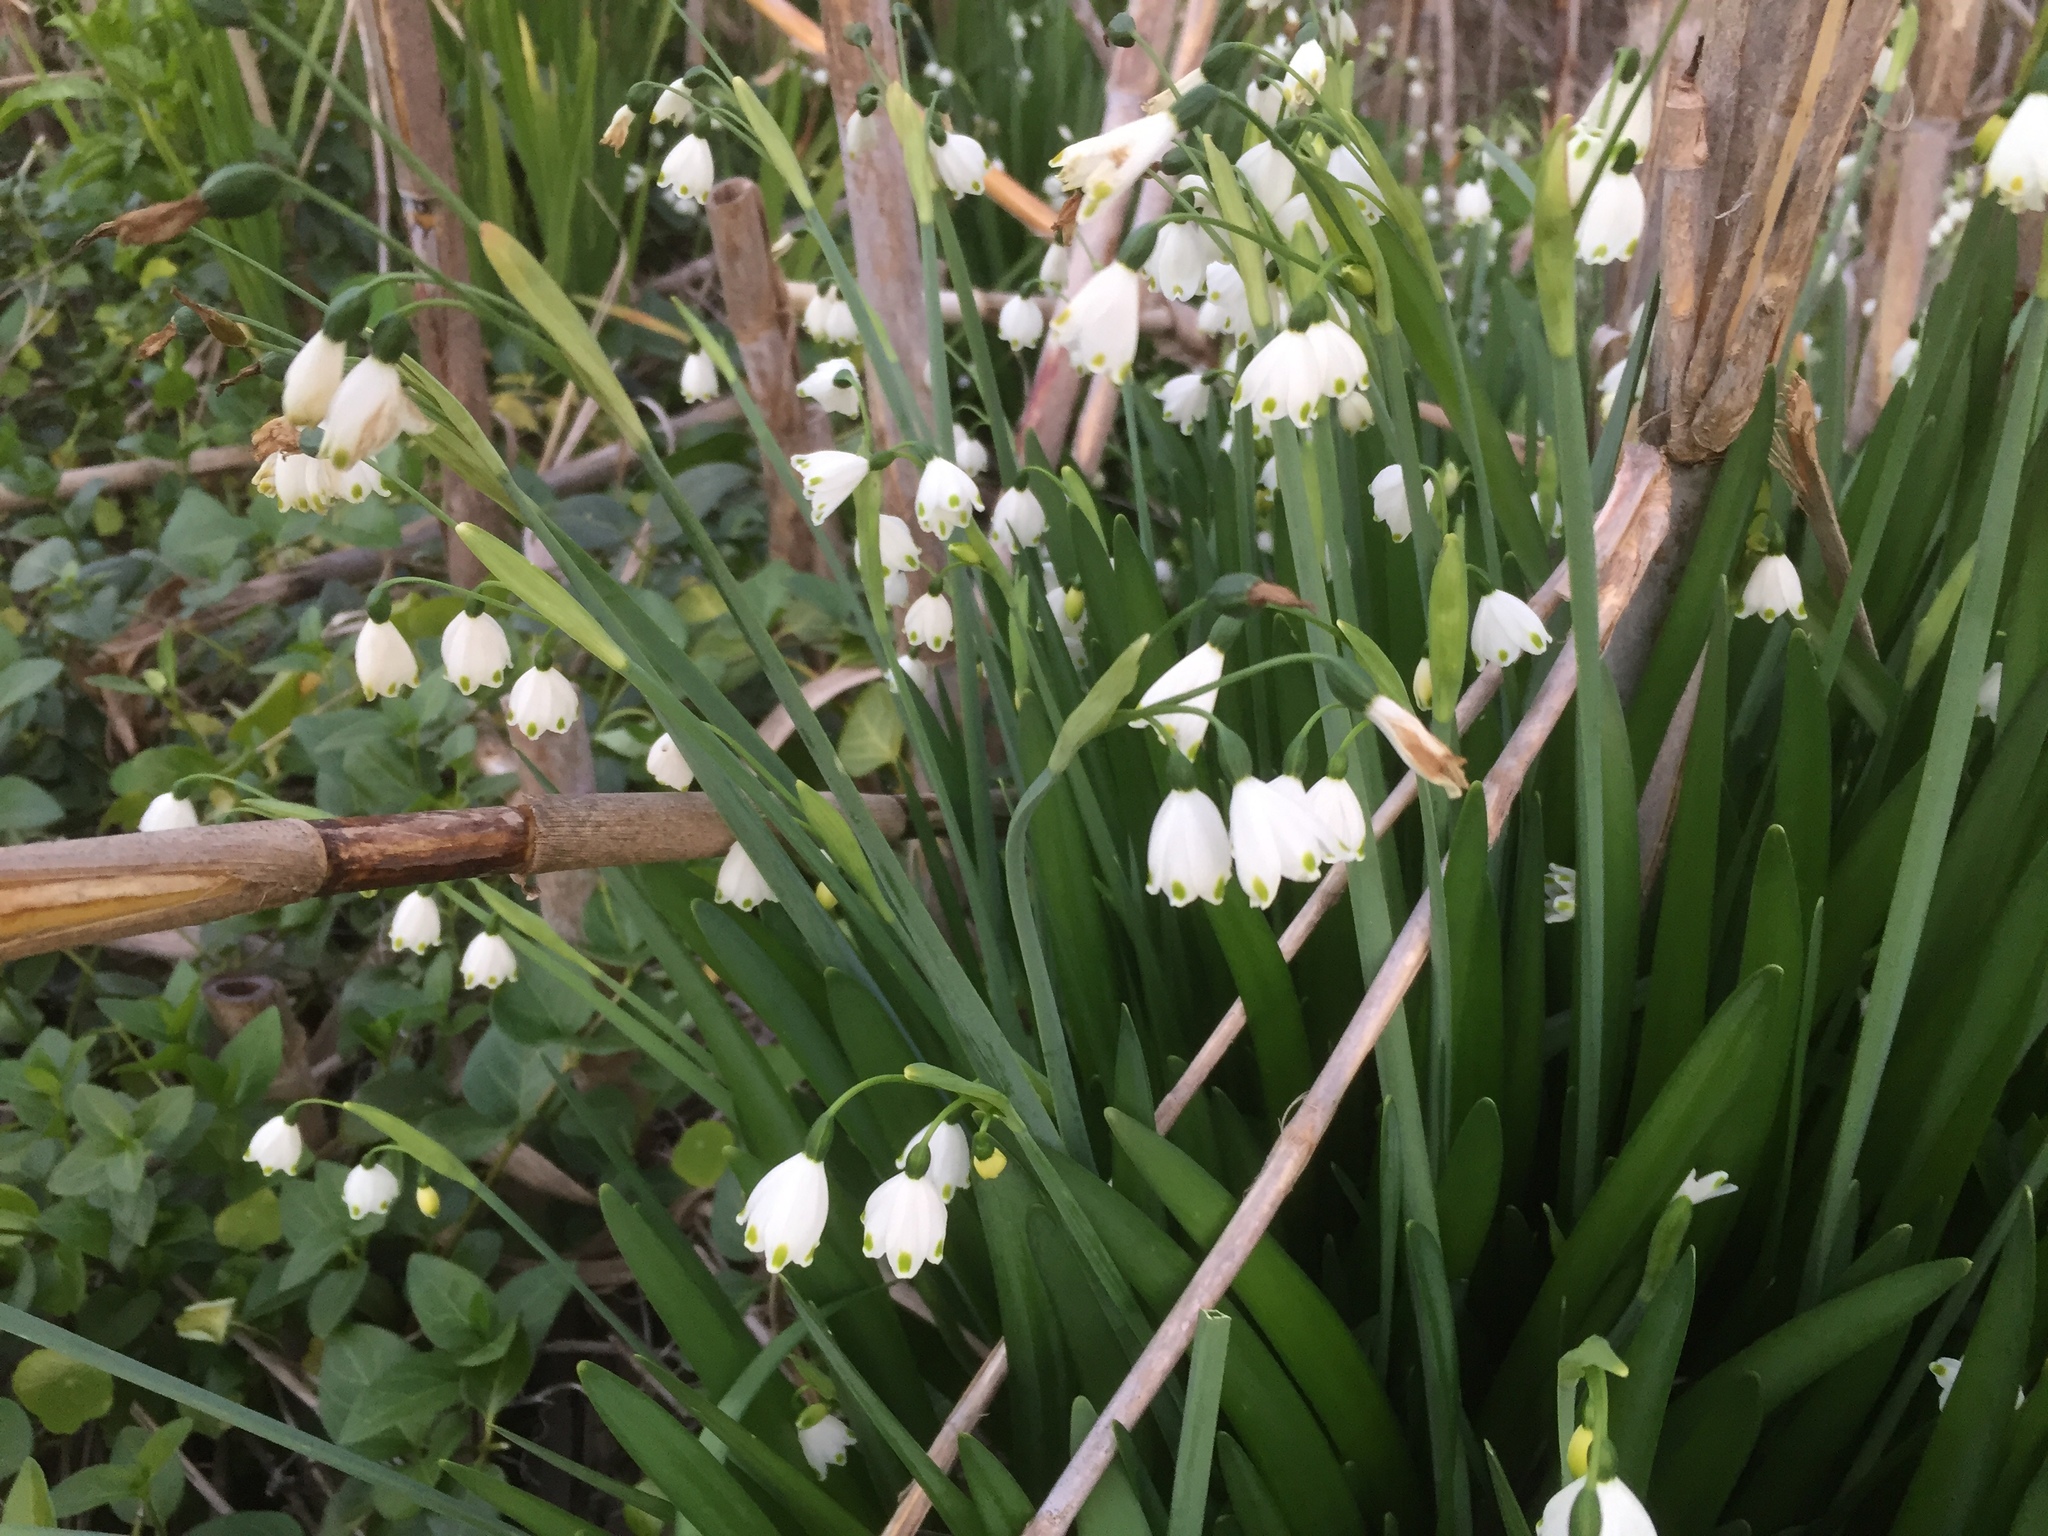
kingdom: Plantae
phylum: Tracheophyta
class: Liliopsida
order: Asparagales
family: Amaryllidaceae
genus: Leucojum
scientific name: Leucojum aestivum
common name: Summer snowflake
